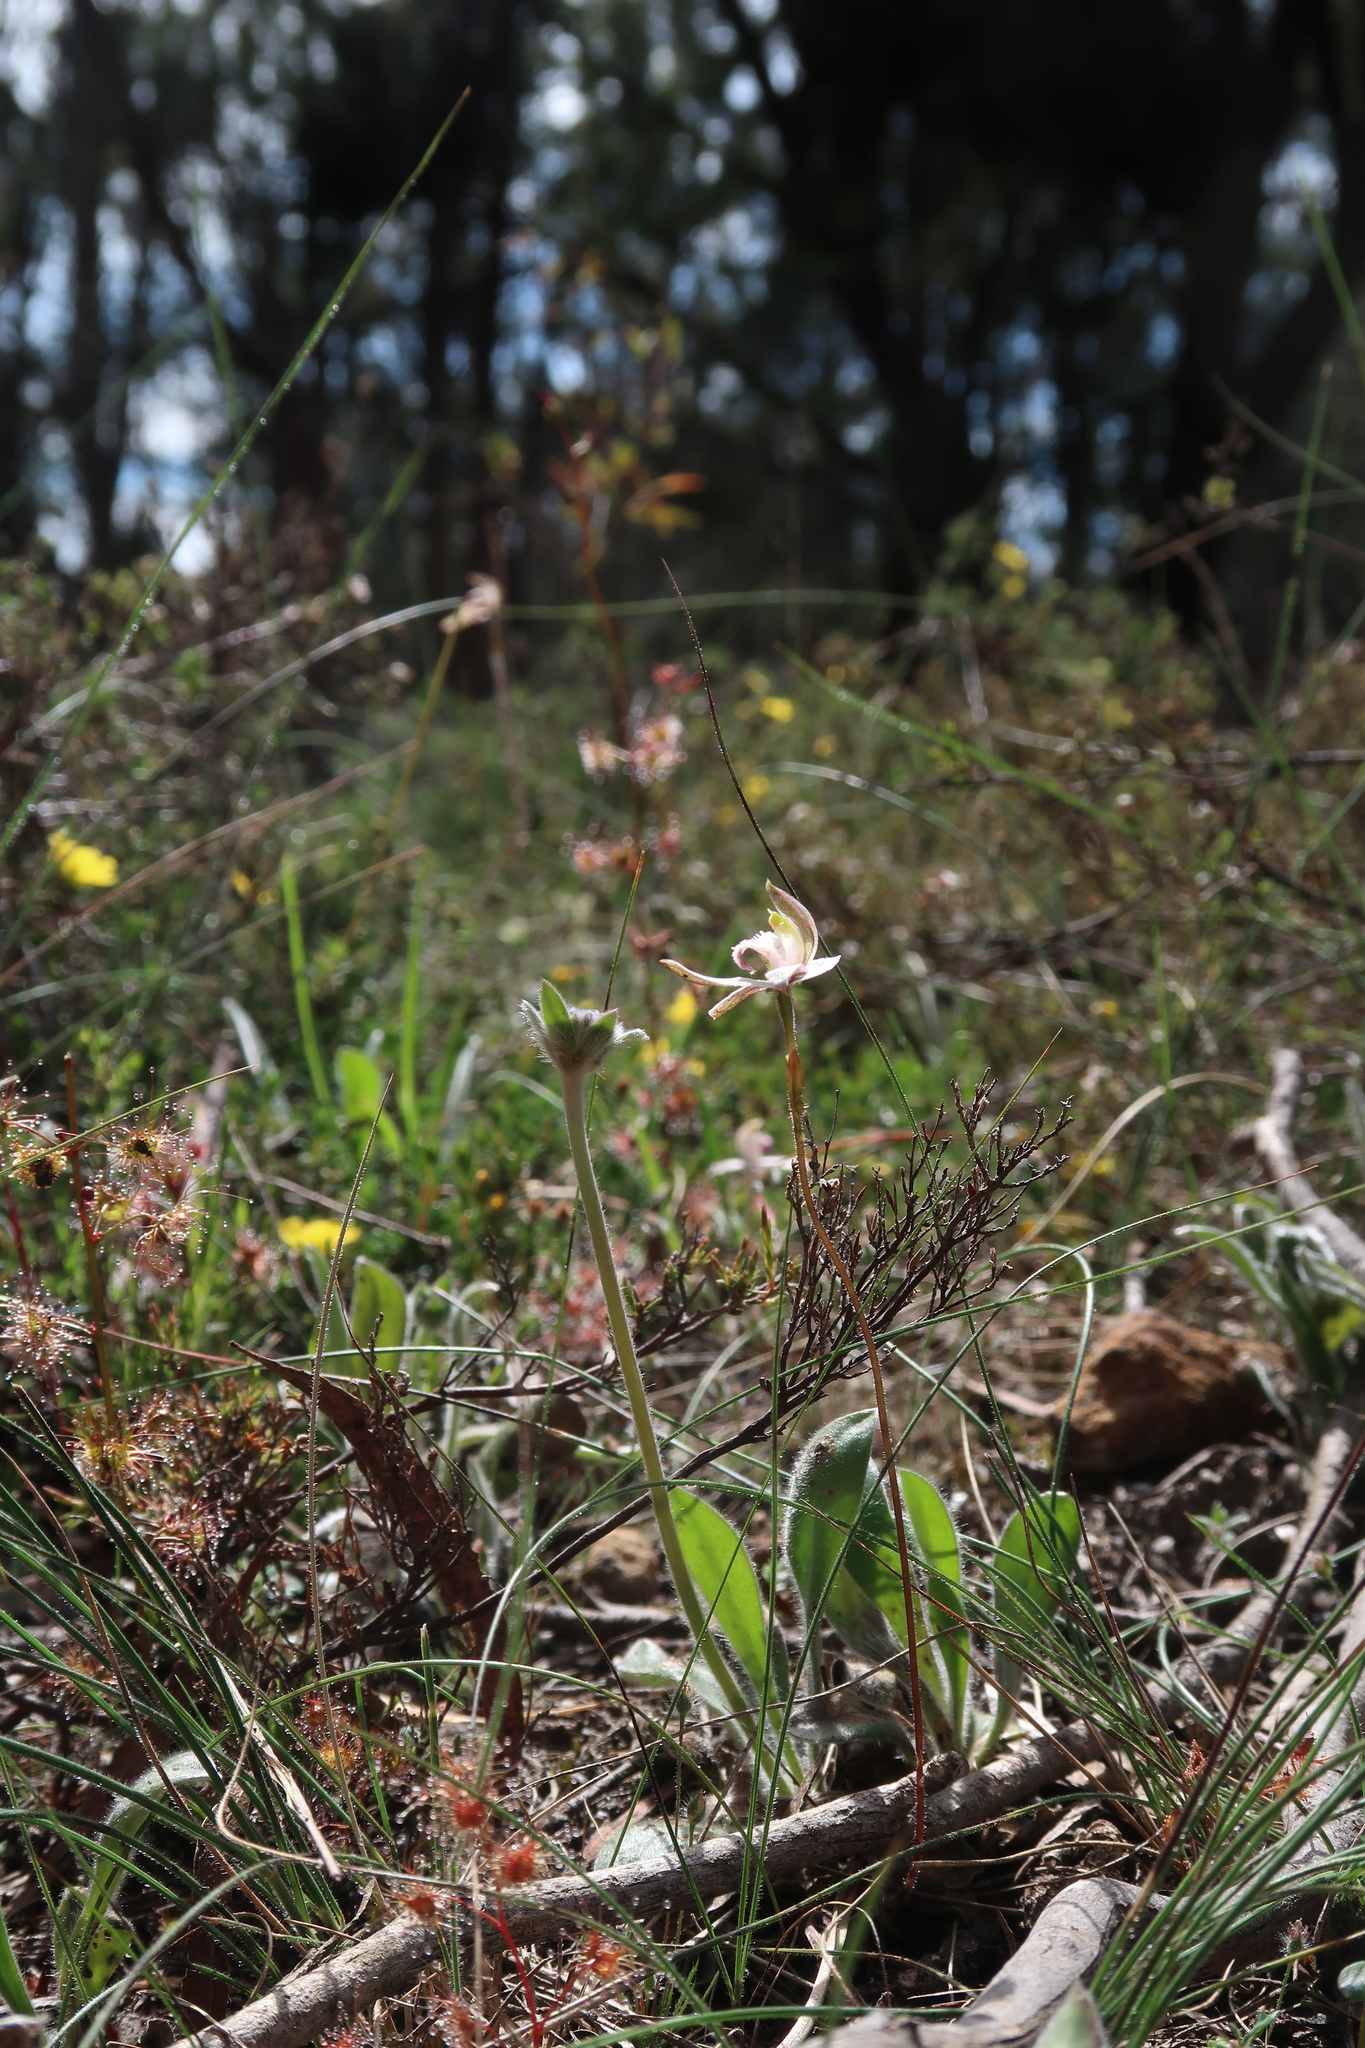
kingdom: Plantae
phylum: Tracheophyta
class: Liliopsida
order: Asparagales
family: Orchidaceae
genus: Caladenia
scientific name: Caladenia gracilis
